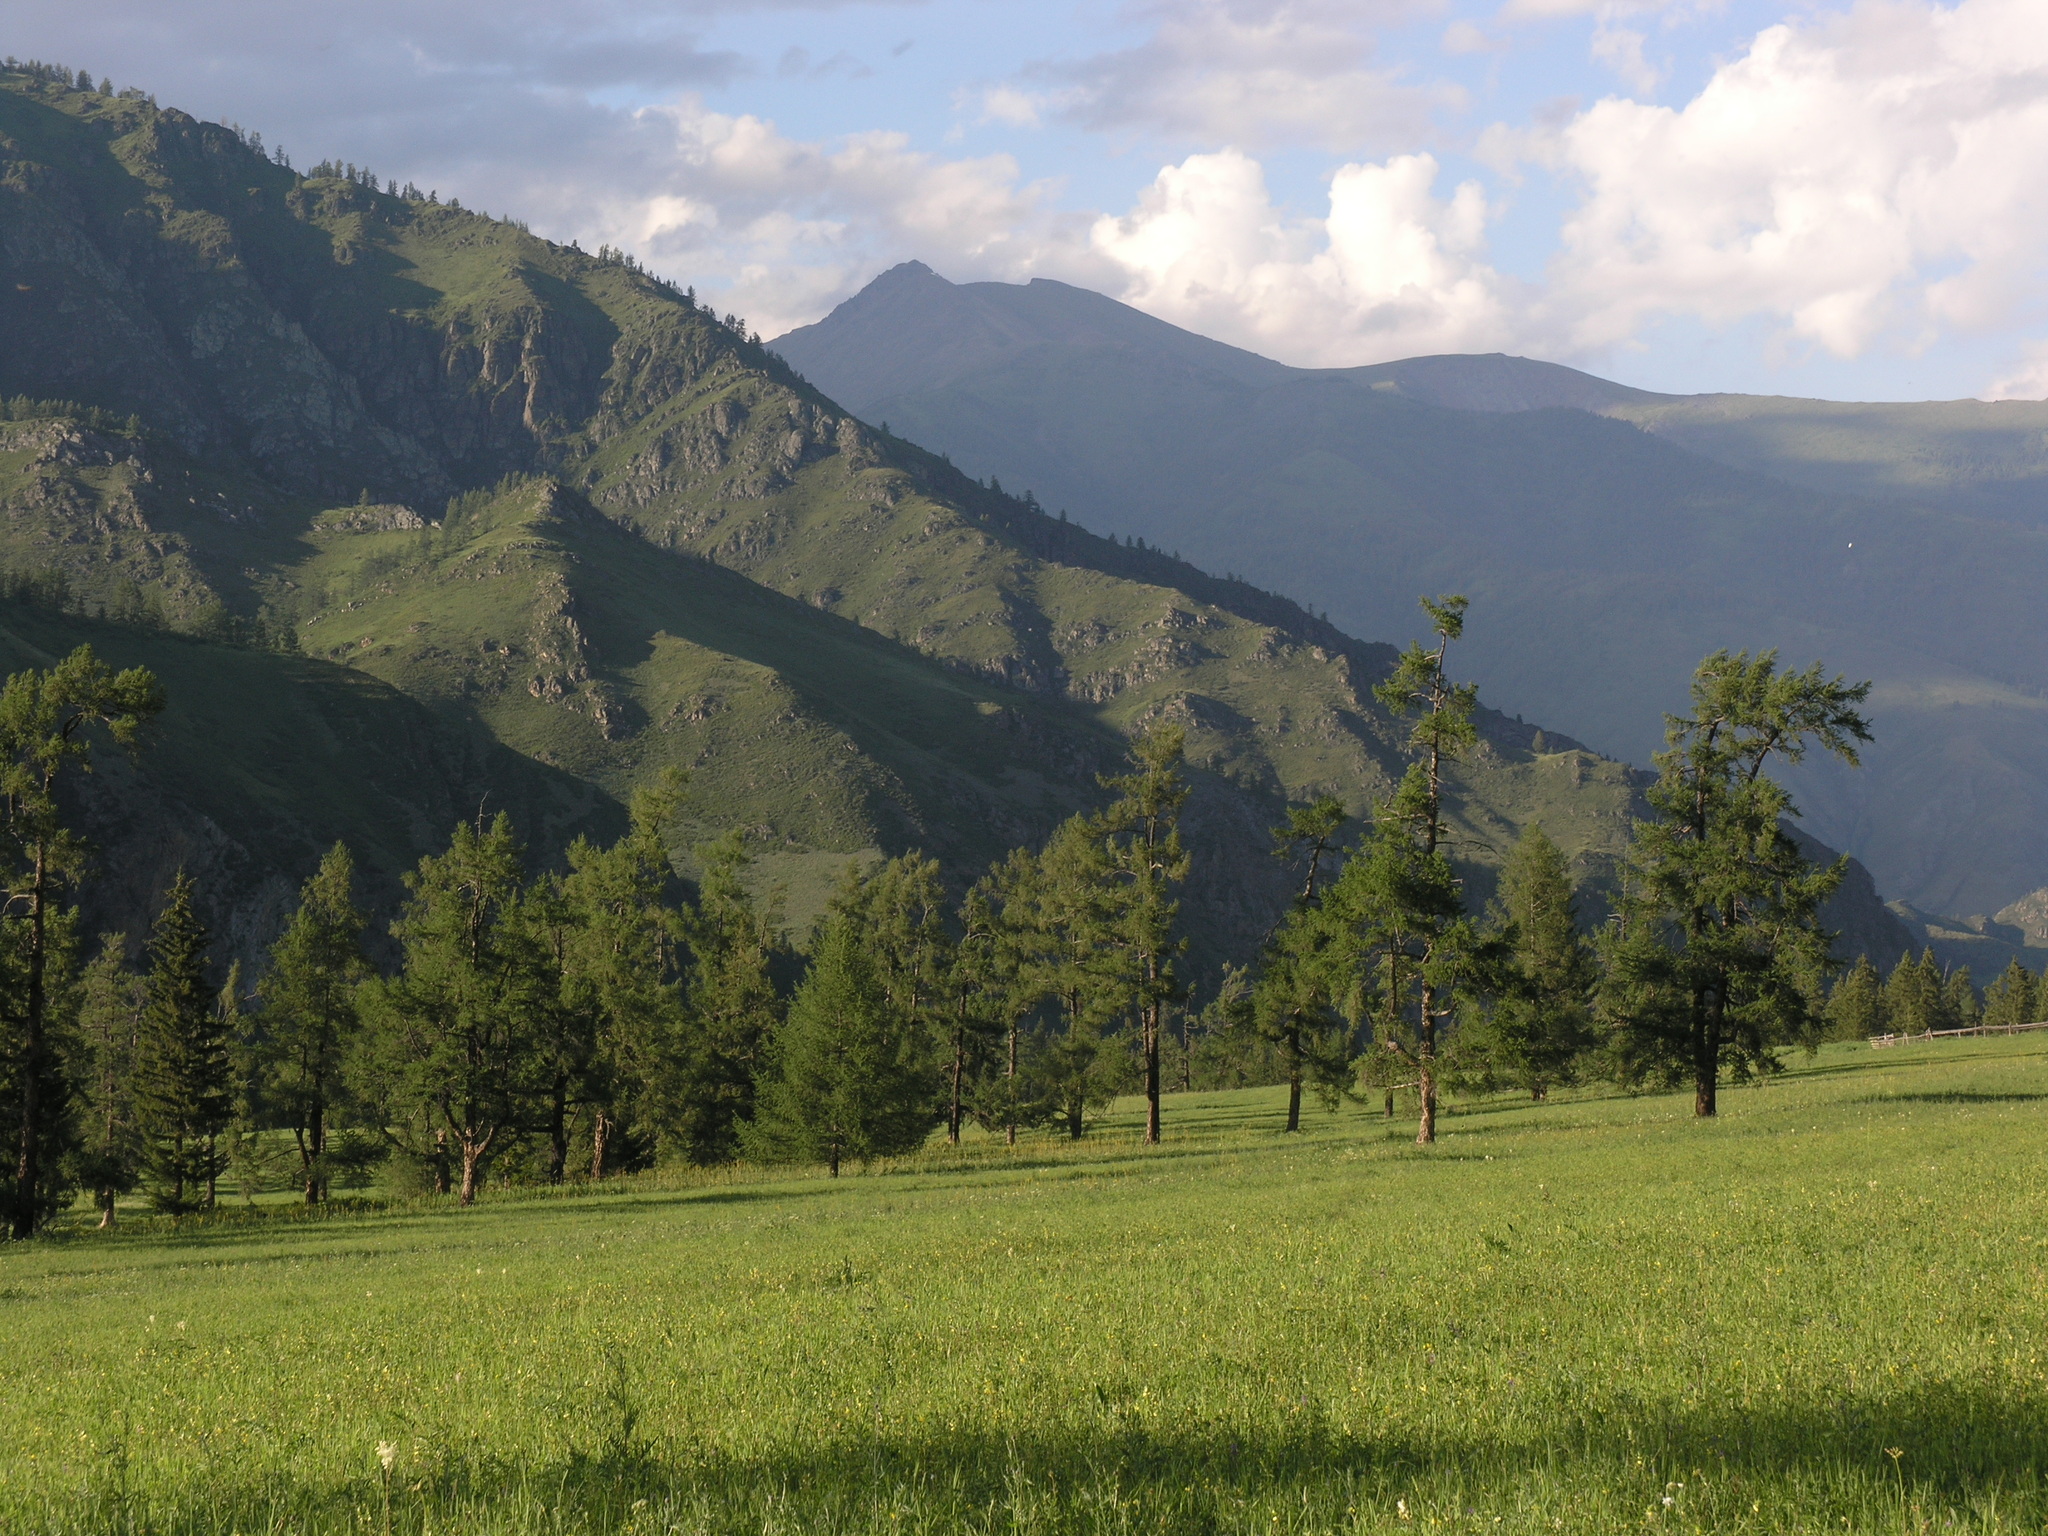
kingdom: Plantae
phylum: Tracheophyta
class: Pinopsida
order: Pinales
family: Pinaceae
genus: Larix
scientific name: Larix sibirica
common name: Siberian larch
